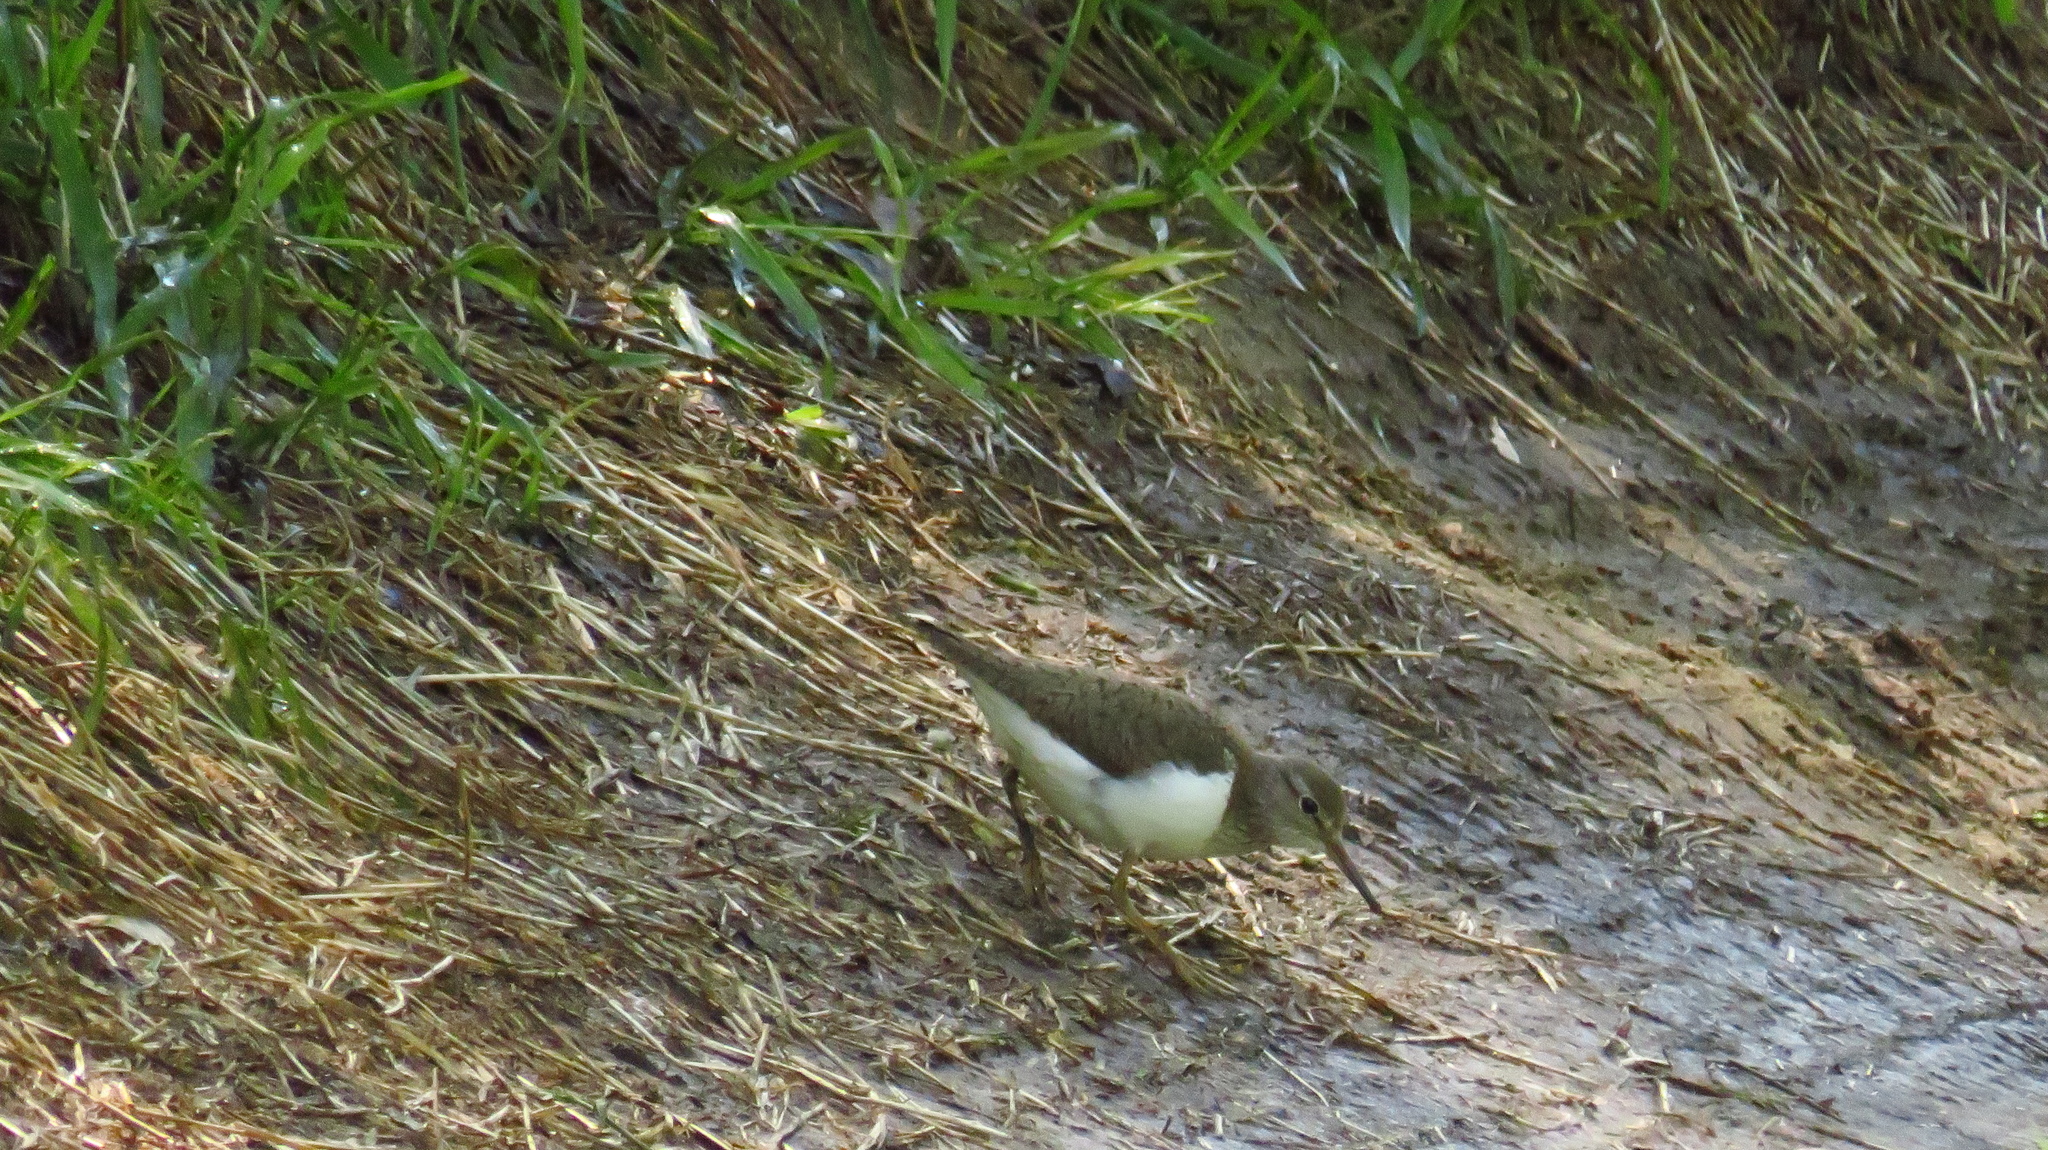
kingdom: Animalia
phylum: Chordata
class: Aves
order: Charadriiformes
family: Scolopacidae
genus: Actitis
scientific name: Actitis hypoleucos
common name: Common sandpiper
